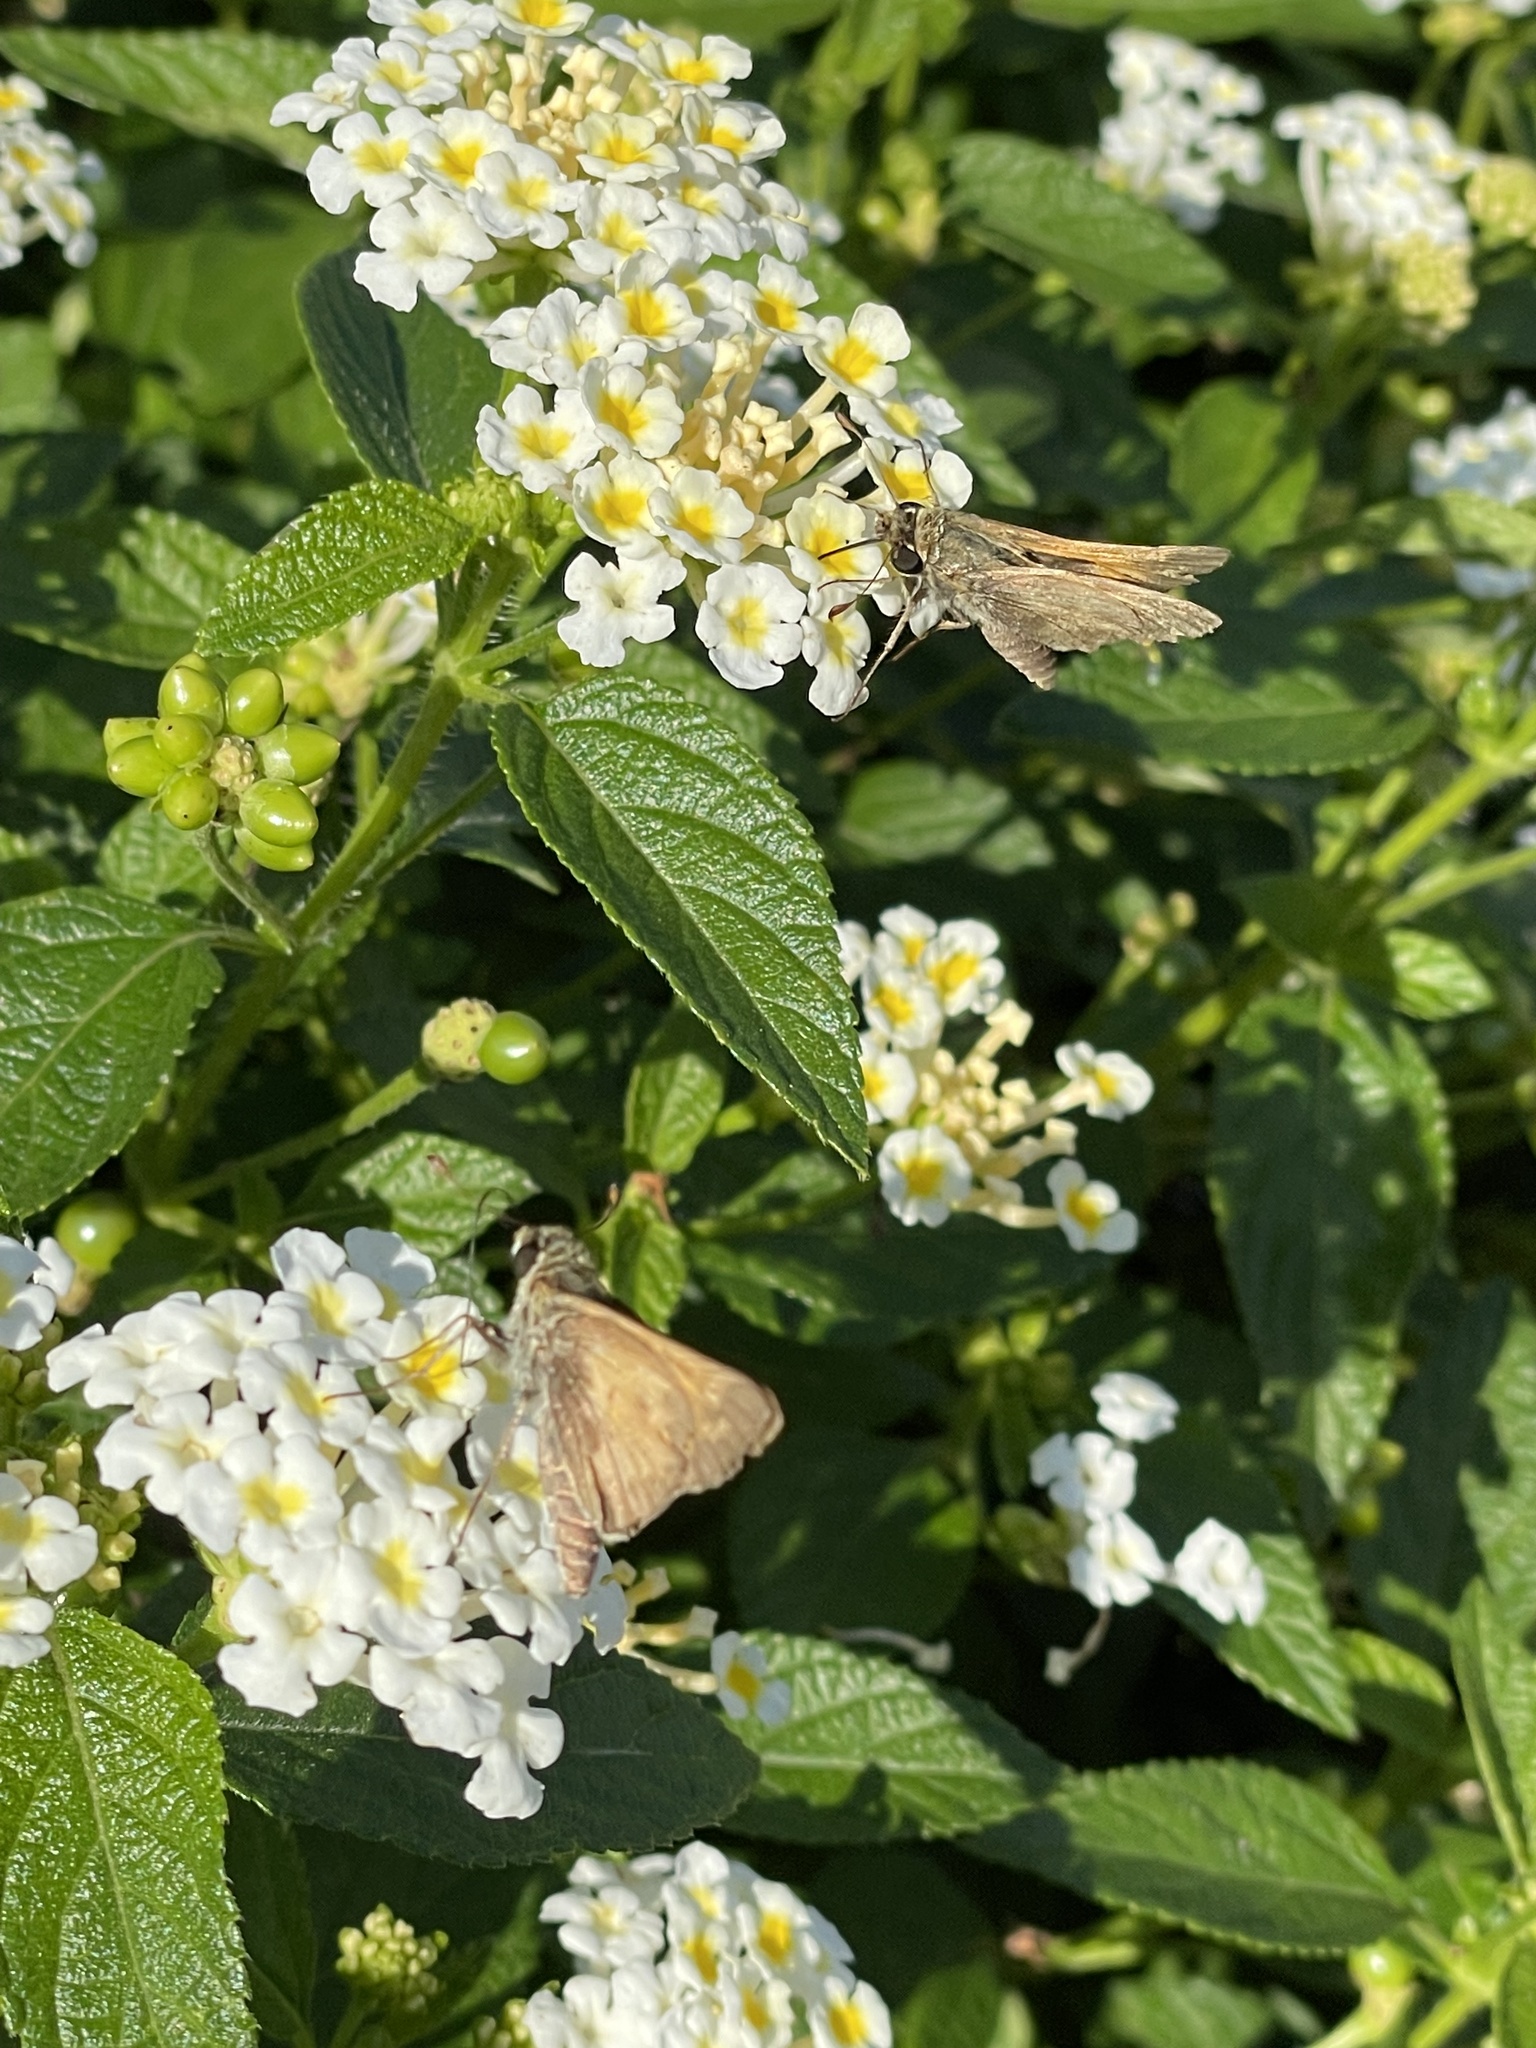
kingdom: Animalia
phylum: Arthropoda
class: Insecta
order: Lepidoptera
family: Hesperiidae
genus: Atalopedes
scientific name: Atalopedes
